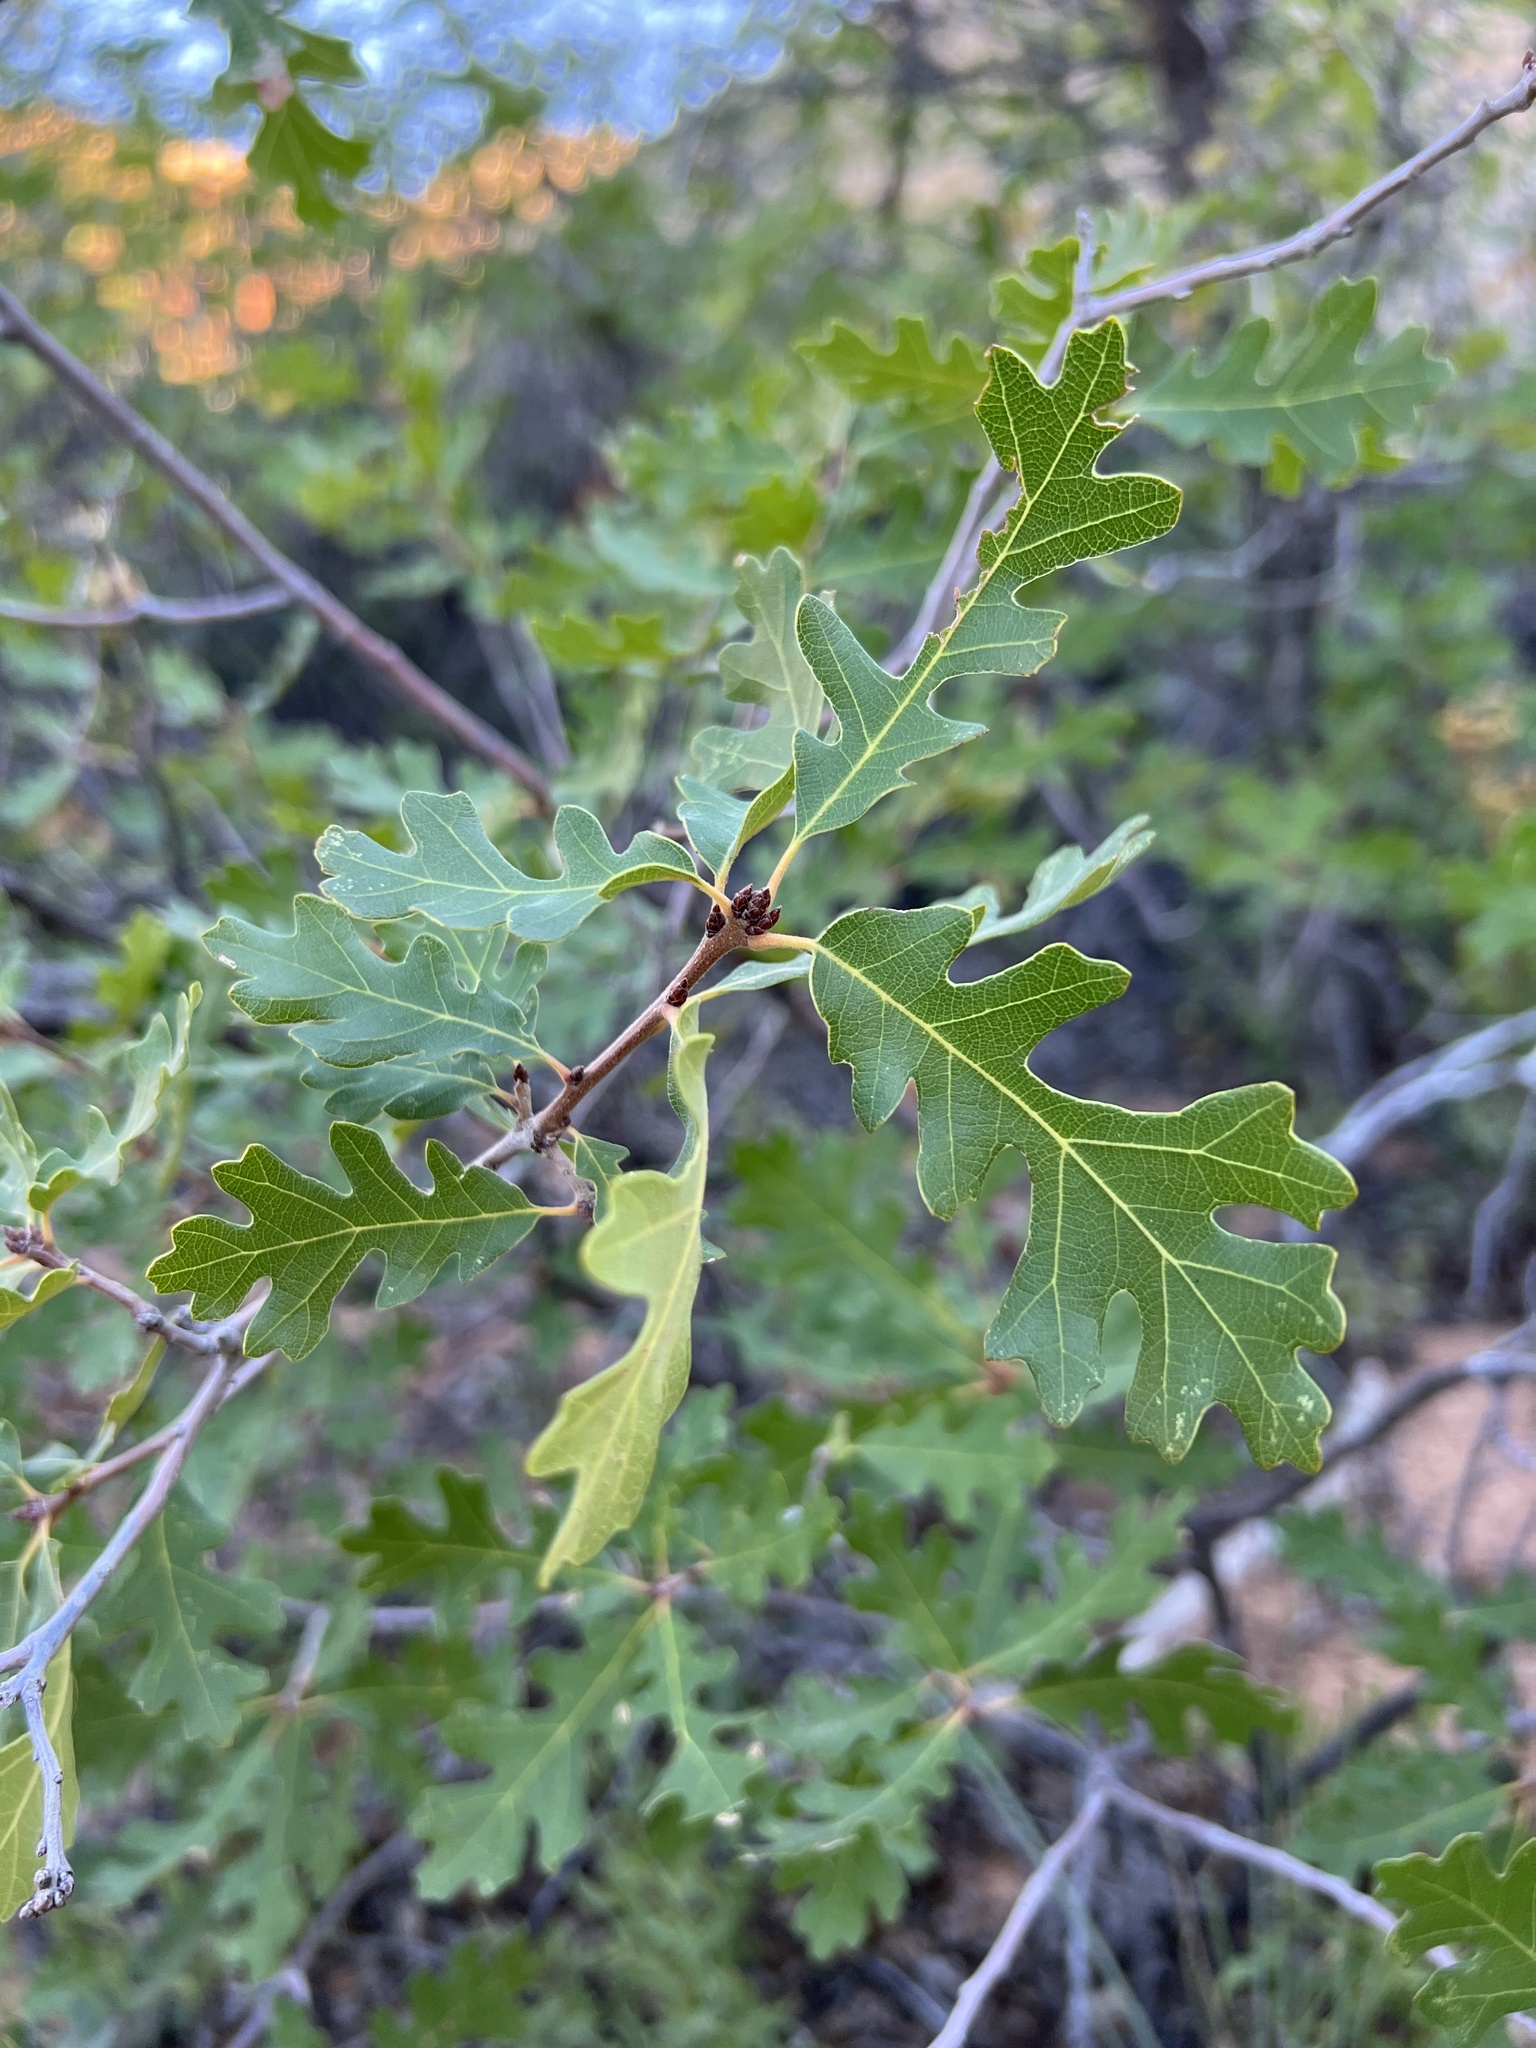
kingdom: Plantae
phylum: Tracheophyta
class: Magnoliopsida
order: Fagales
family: Fagaceae
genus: Quercus
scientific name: Quercus gambelii
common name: Gambel oak
